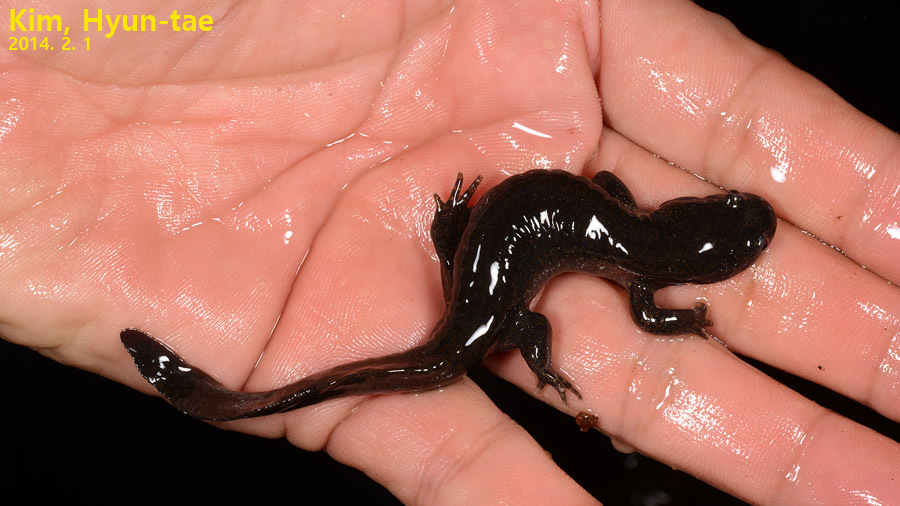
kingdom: Animalia
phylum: Chordata
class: Amphibia
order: Caudata
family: Hynobiidae
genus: Hynobius
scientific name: Hynobius leechii
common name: Gensan salamander
